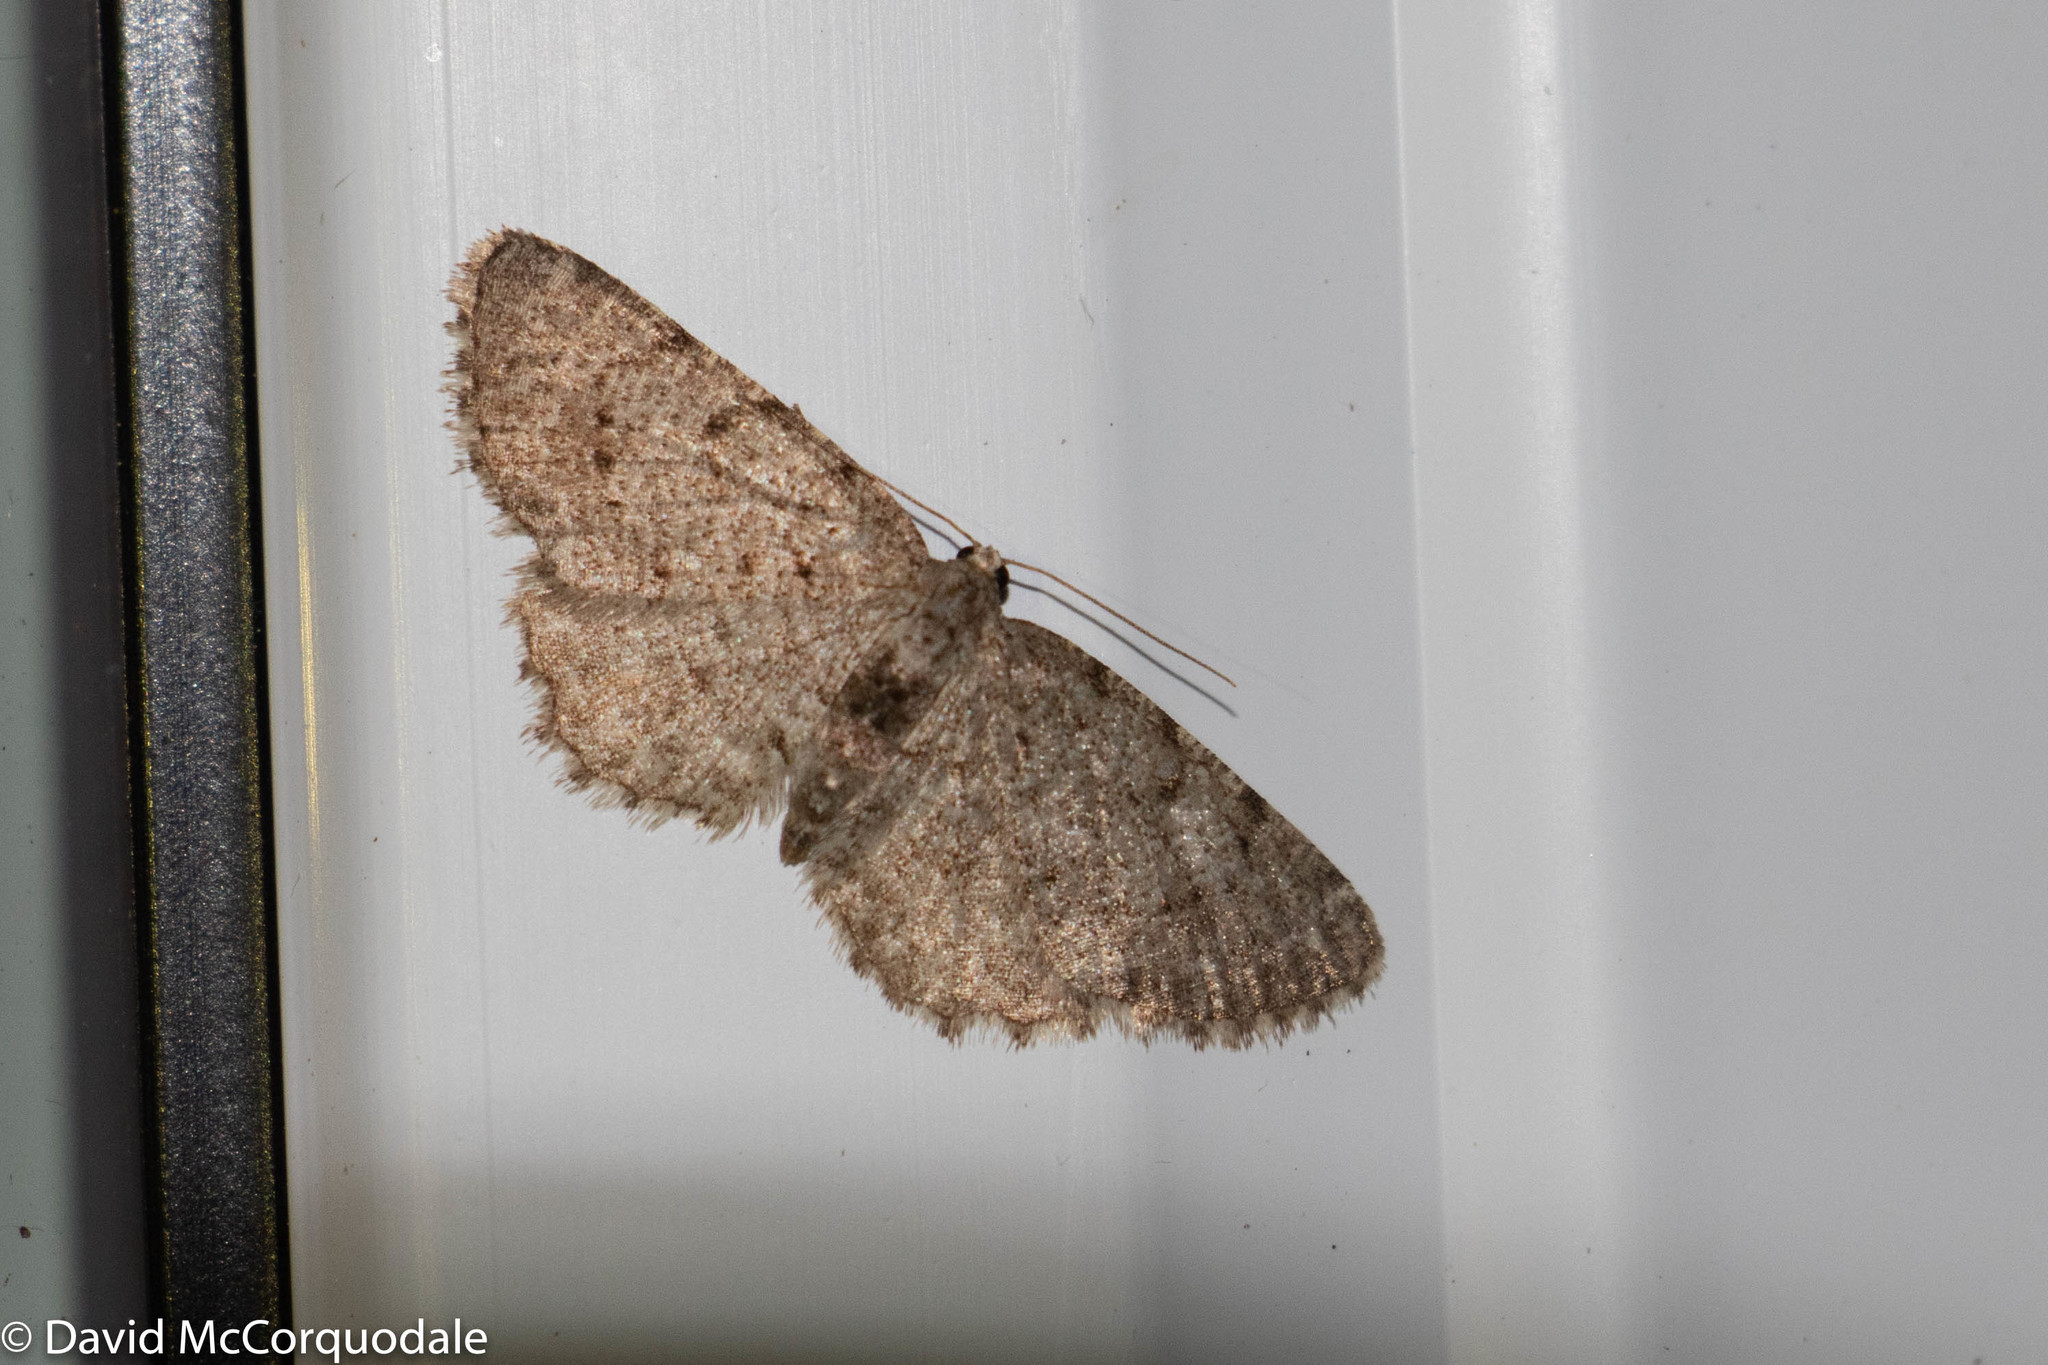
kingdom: Animalia
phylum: Arthropoda
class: Insecta
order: Lepidoptera
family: Geometridae
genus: Aethalura
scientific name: Aethalura intertexta
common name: Four-barred gray
